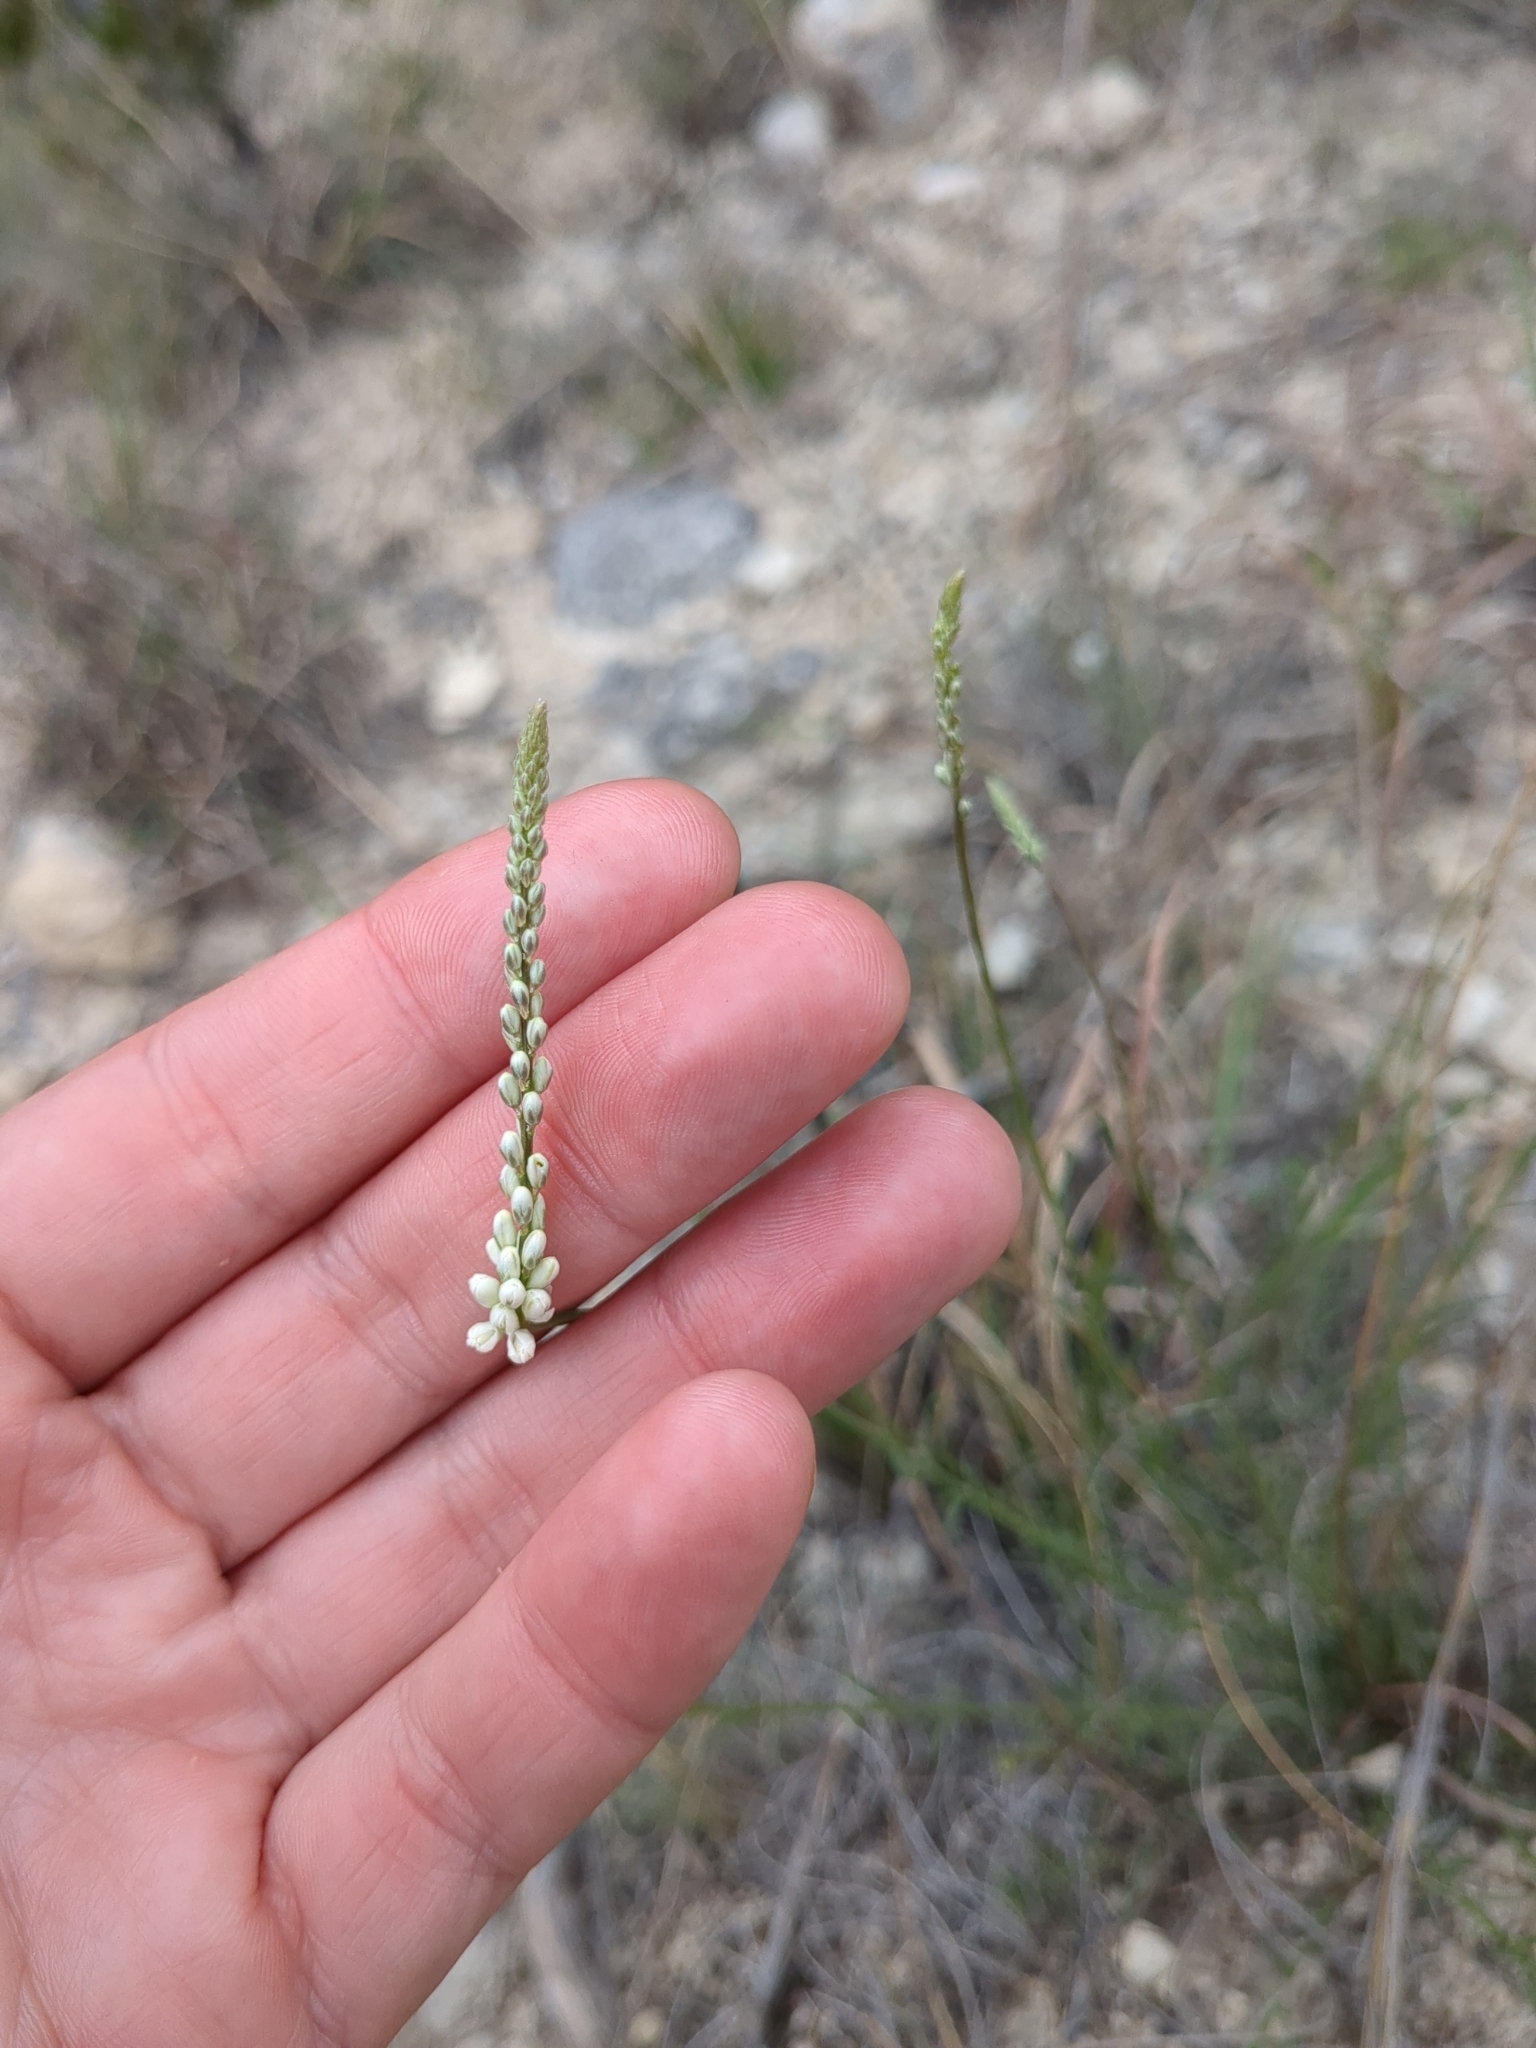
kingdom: Plantae
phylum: Tracheophyta
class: Magnoliopsida
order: Fabales
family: Polygalaceae
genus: Polygala
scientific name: Polygala alba
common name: White milkwort
